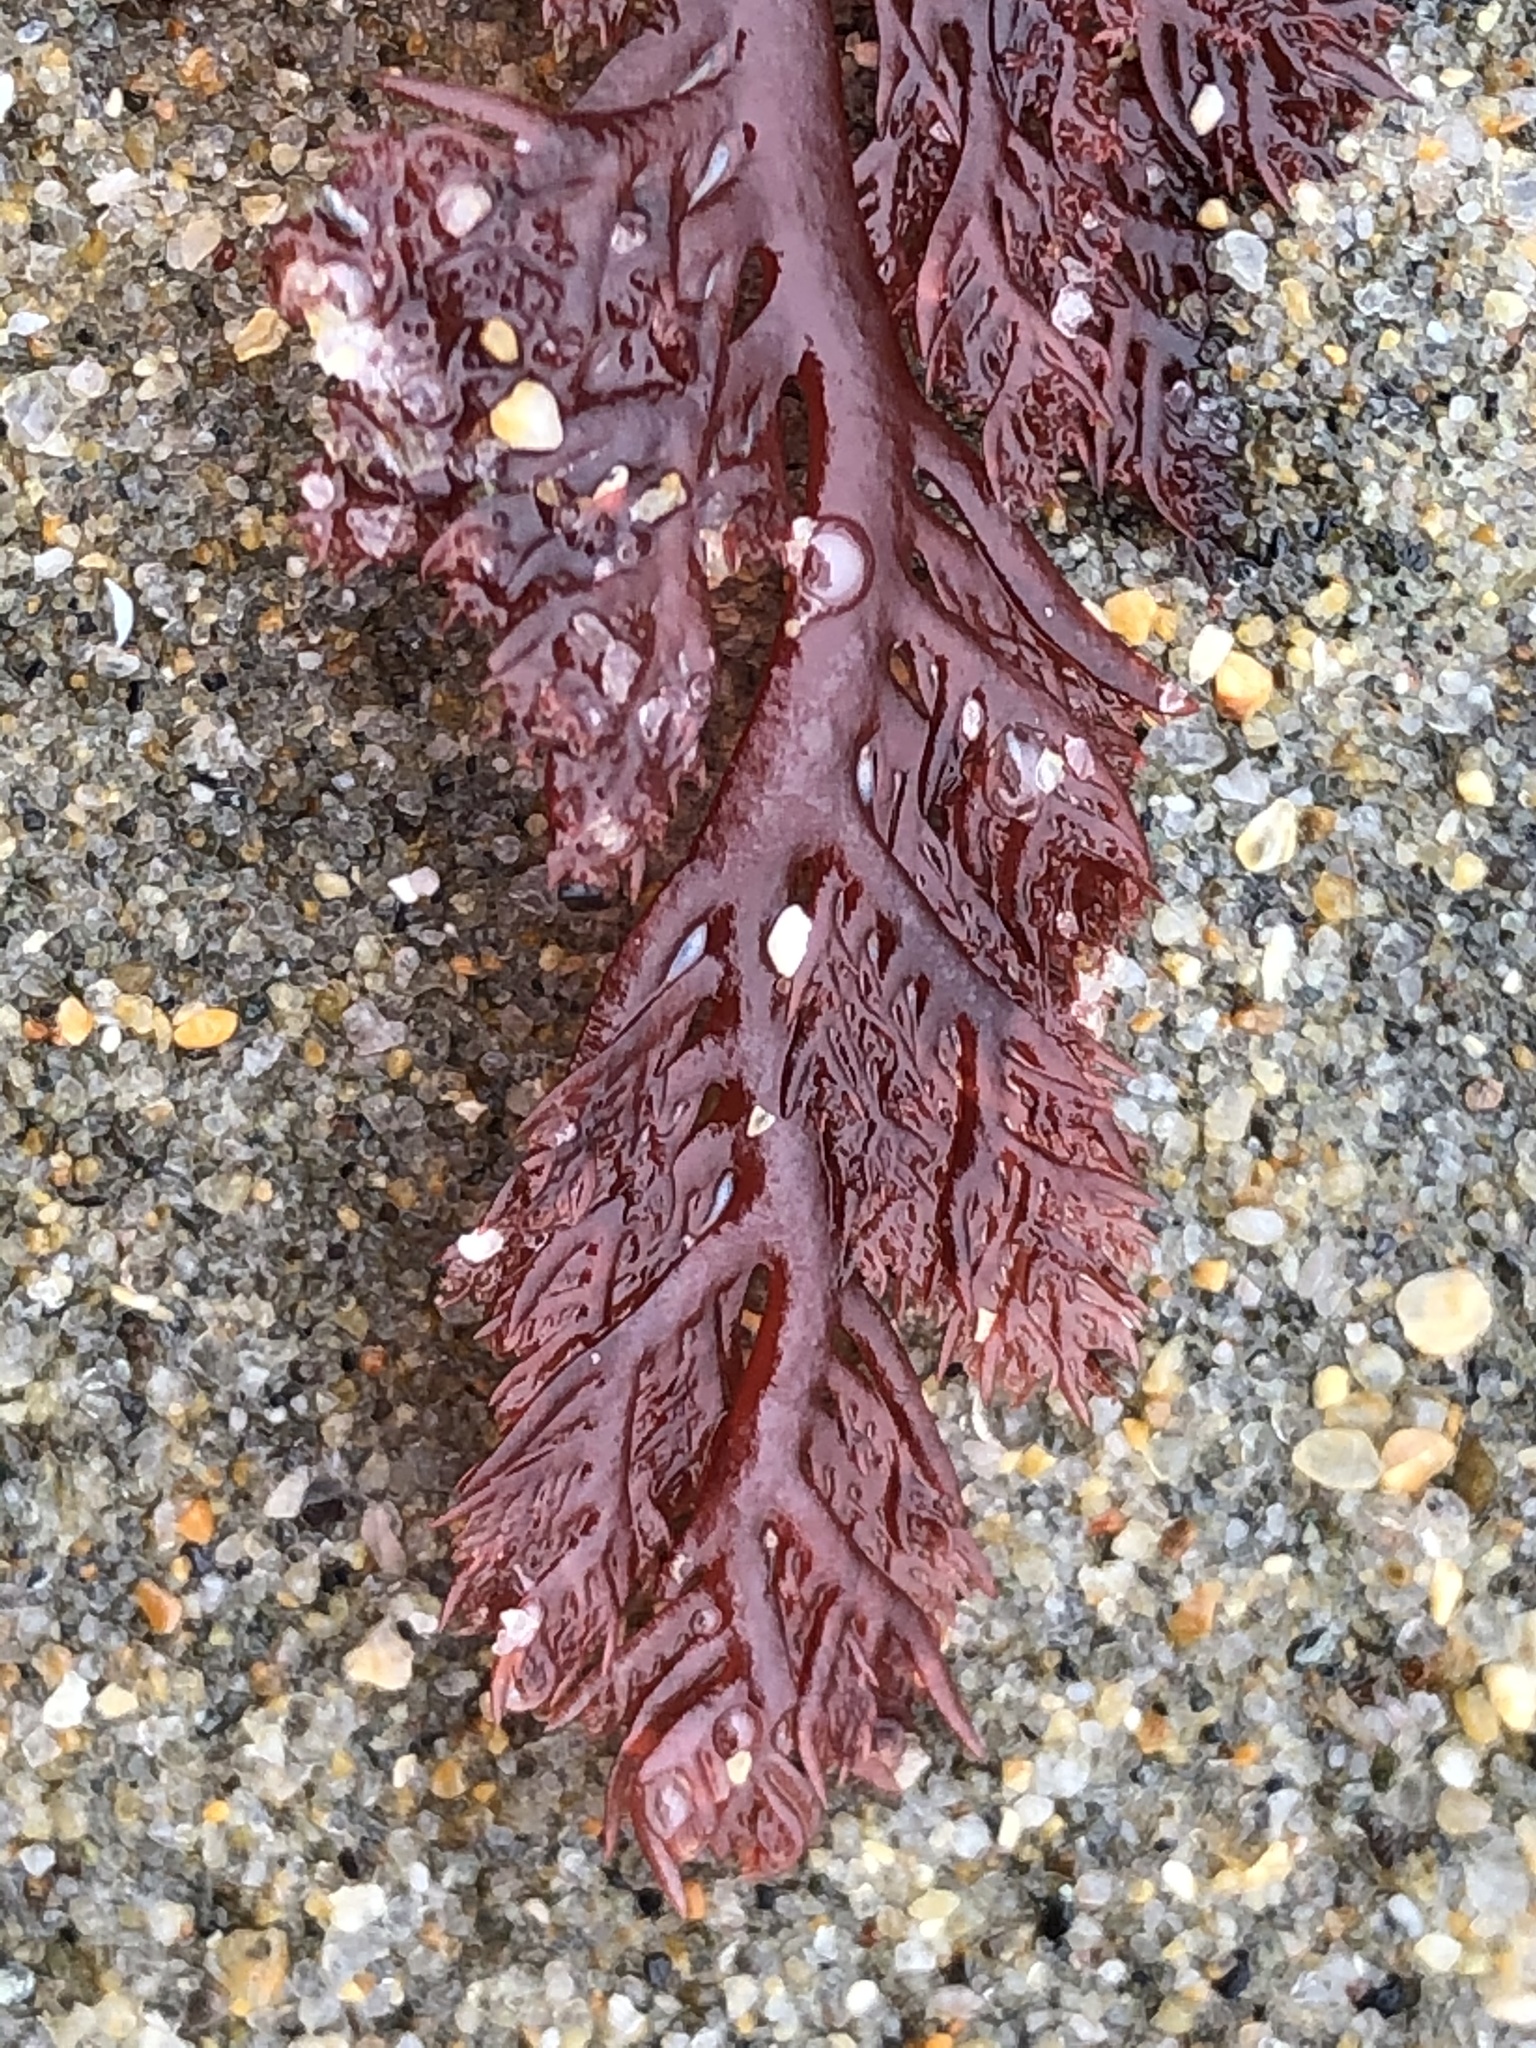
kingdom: Plantae
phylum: Rhodophyta
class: Florideophyceae
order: Plocamiales
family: Plocamiaceae
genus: Plocamium
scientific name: Plocamium cartilagineum
